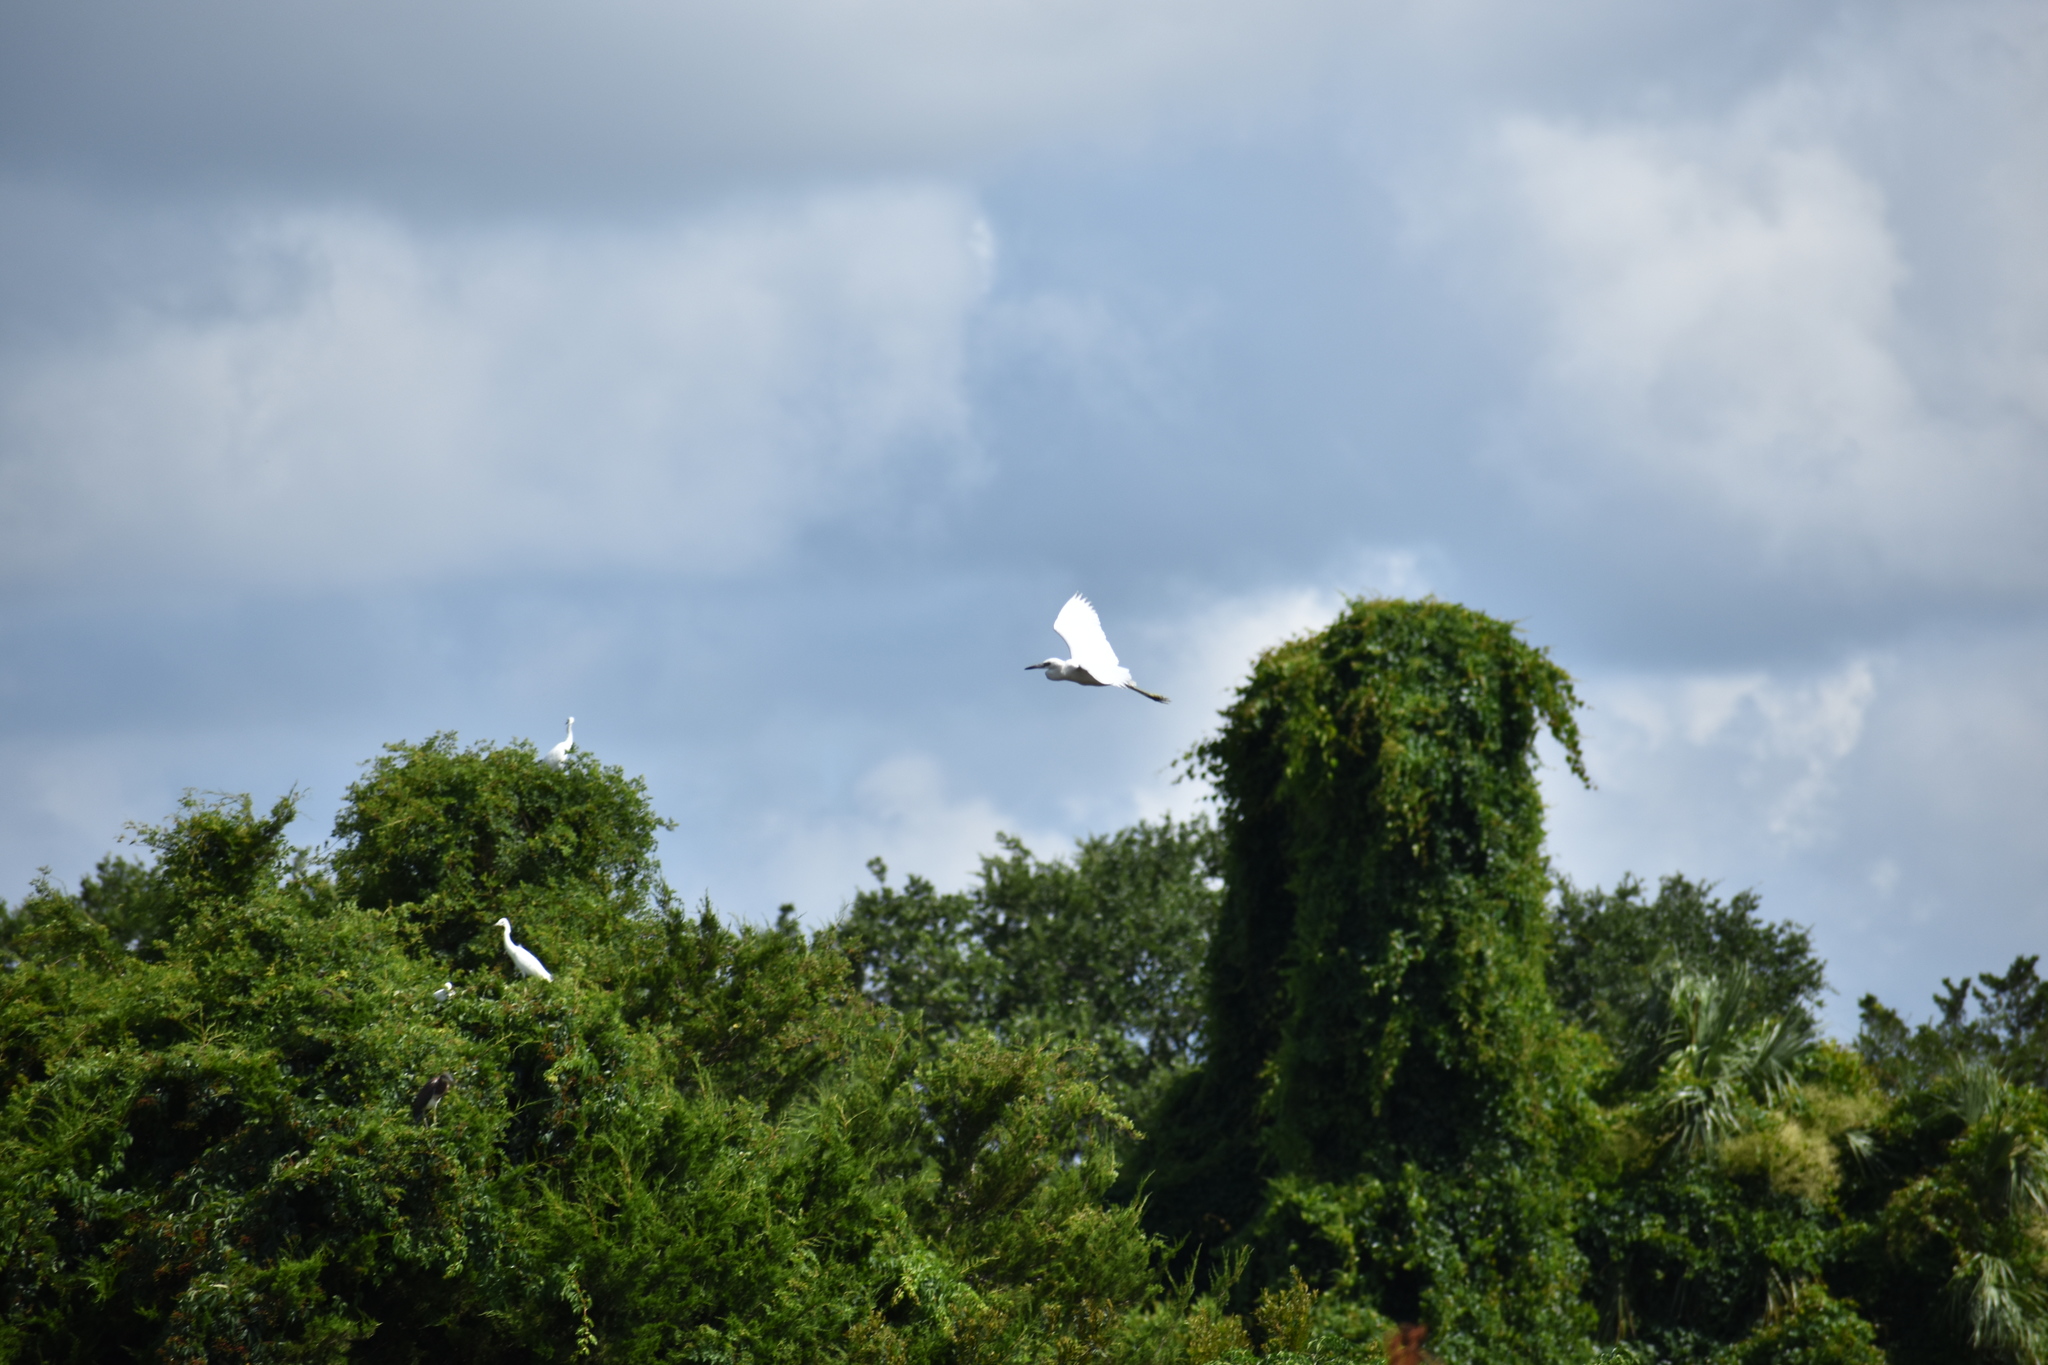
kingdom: Animalia
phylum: Chordata
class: Aves
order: Pelecaniformes
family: Ardeidae
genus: Ardea
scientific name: Ardea alba
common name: Great egret
